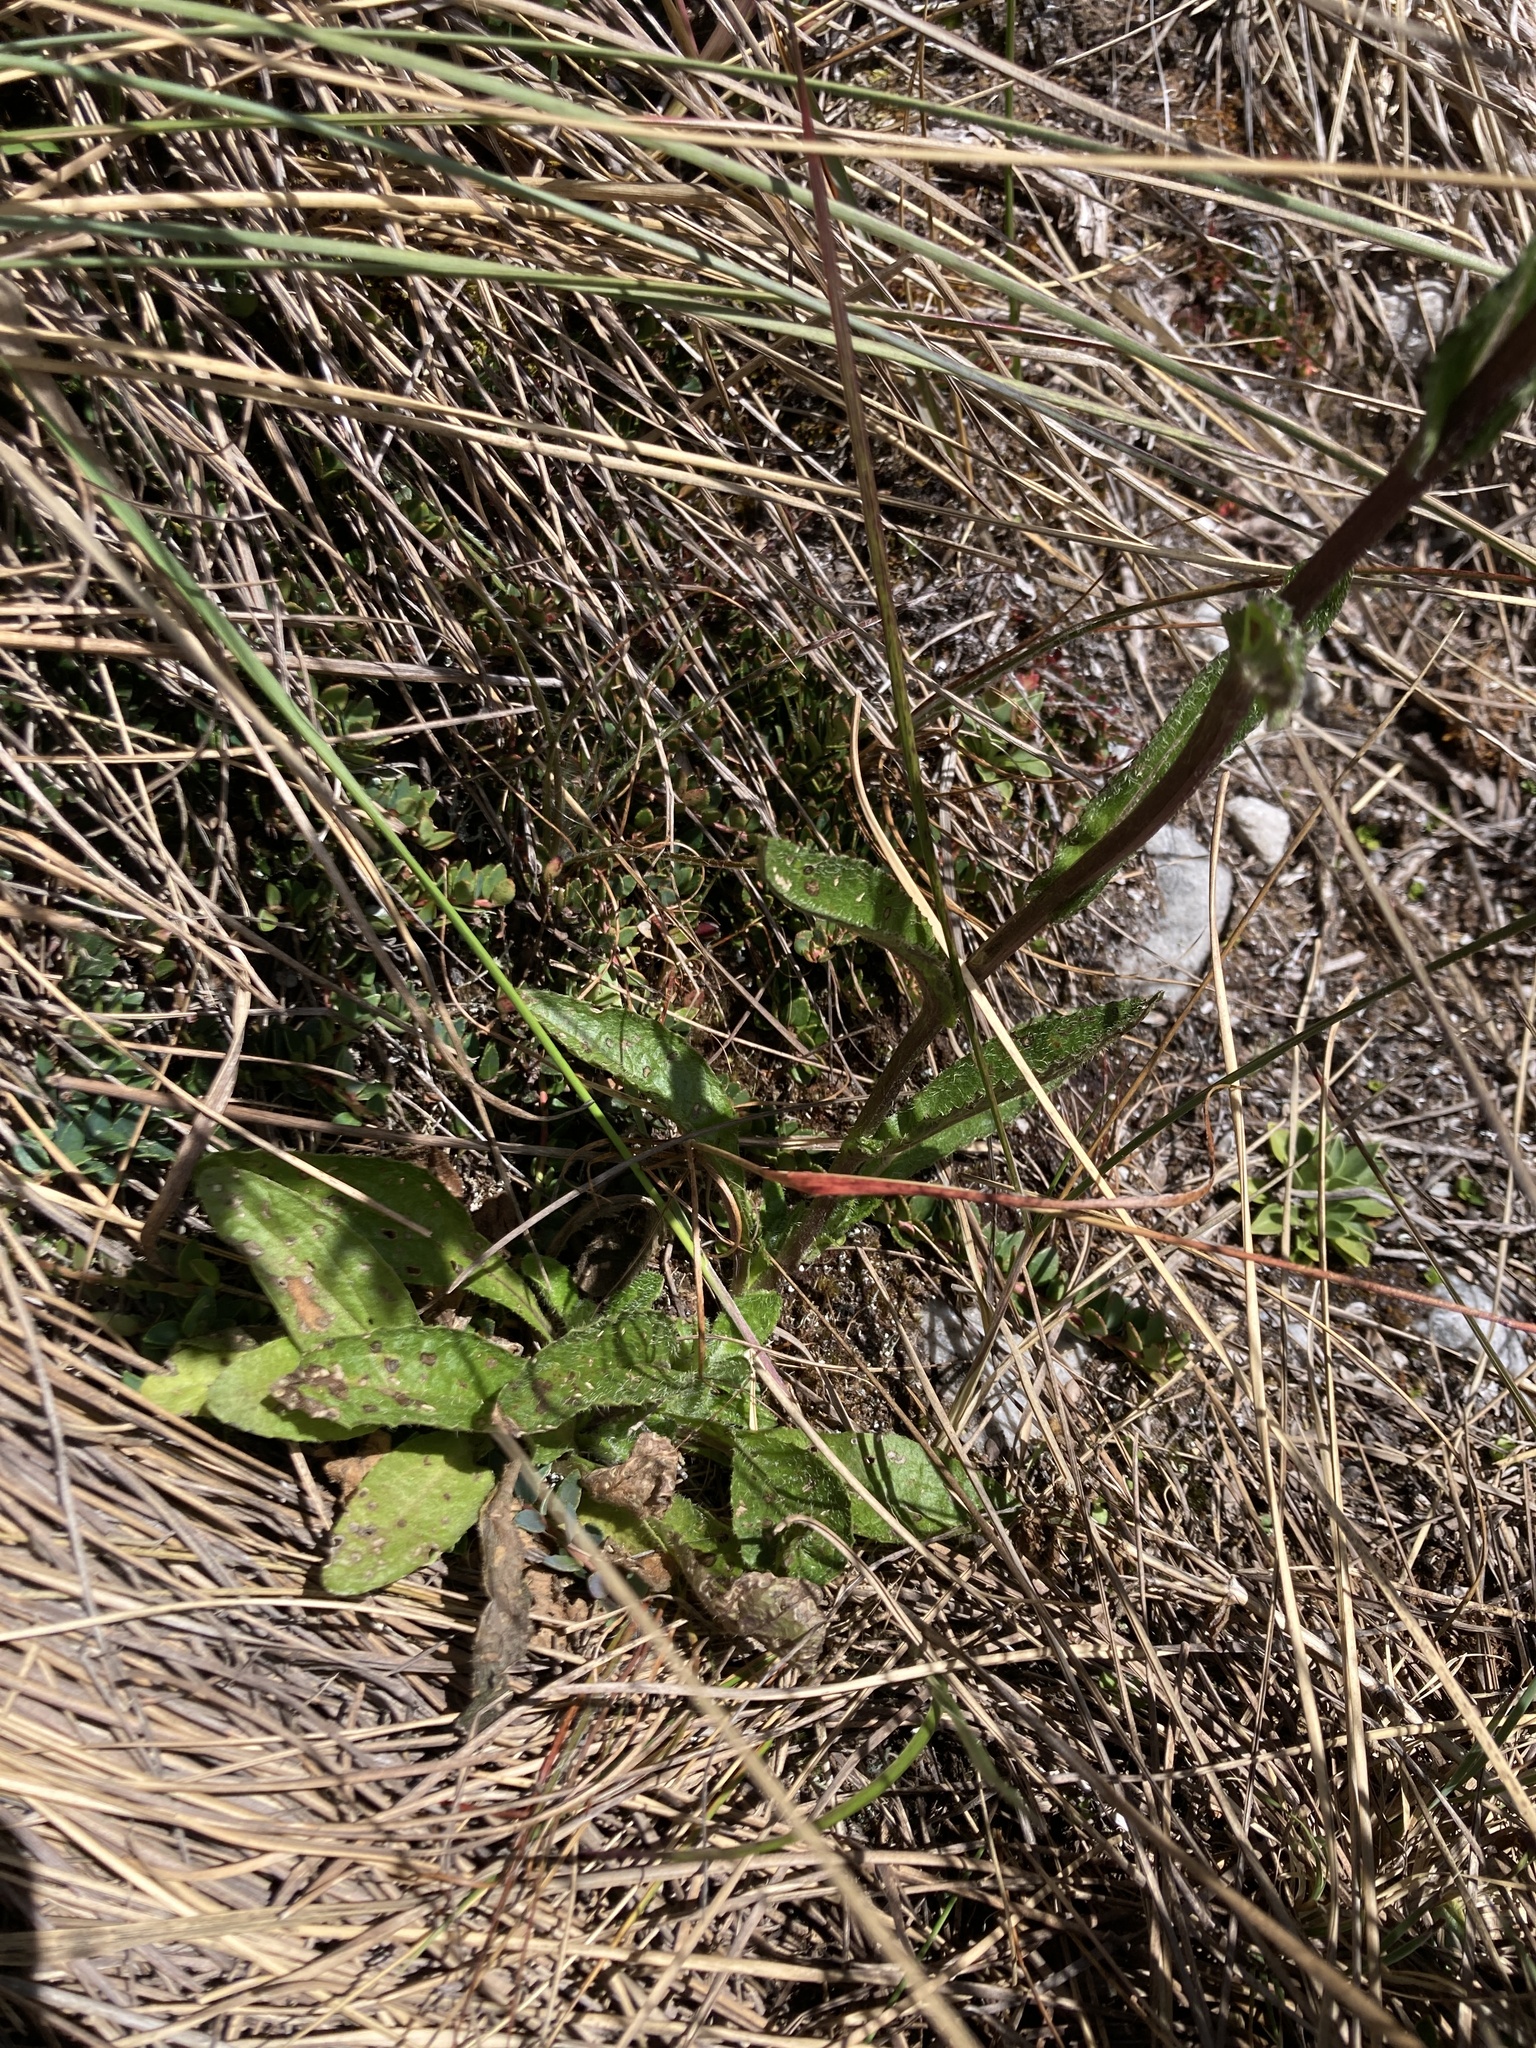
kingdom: Plantae
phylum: Tracheophyta
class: Magnoliopsida
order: Asterales
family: Asteraceae
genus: Senecio
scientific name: Senecio adglacialis
